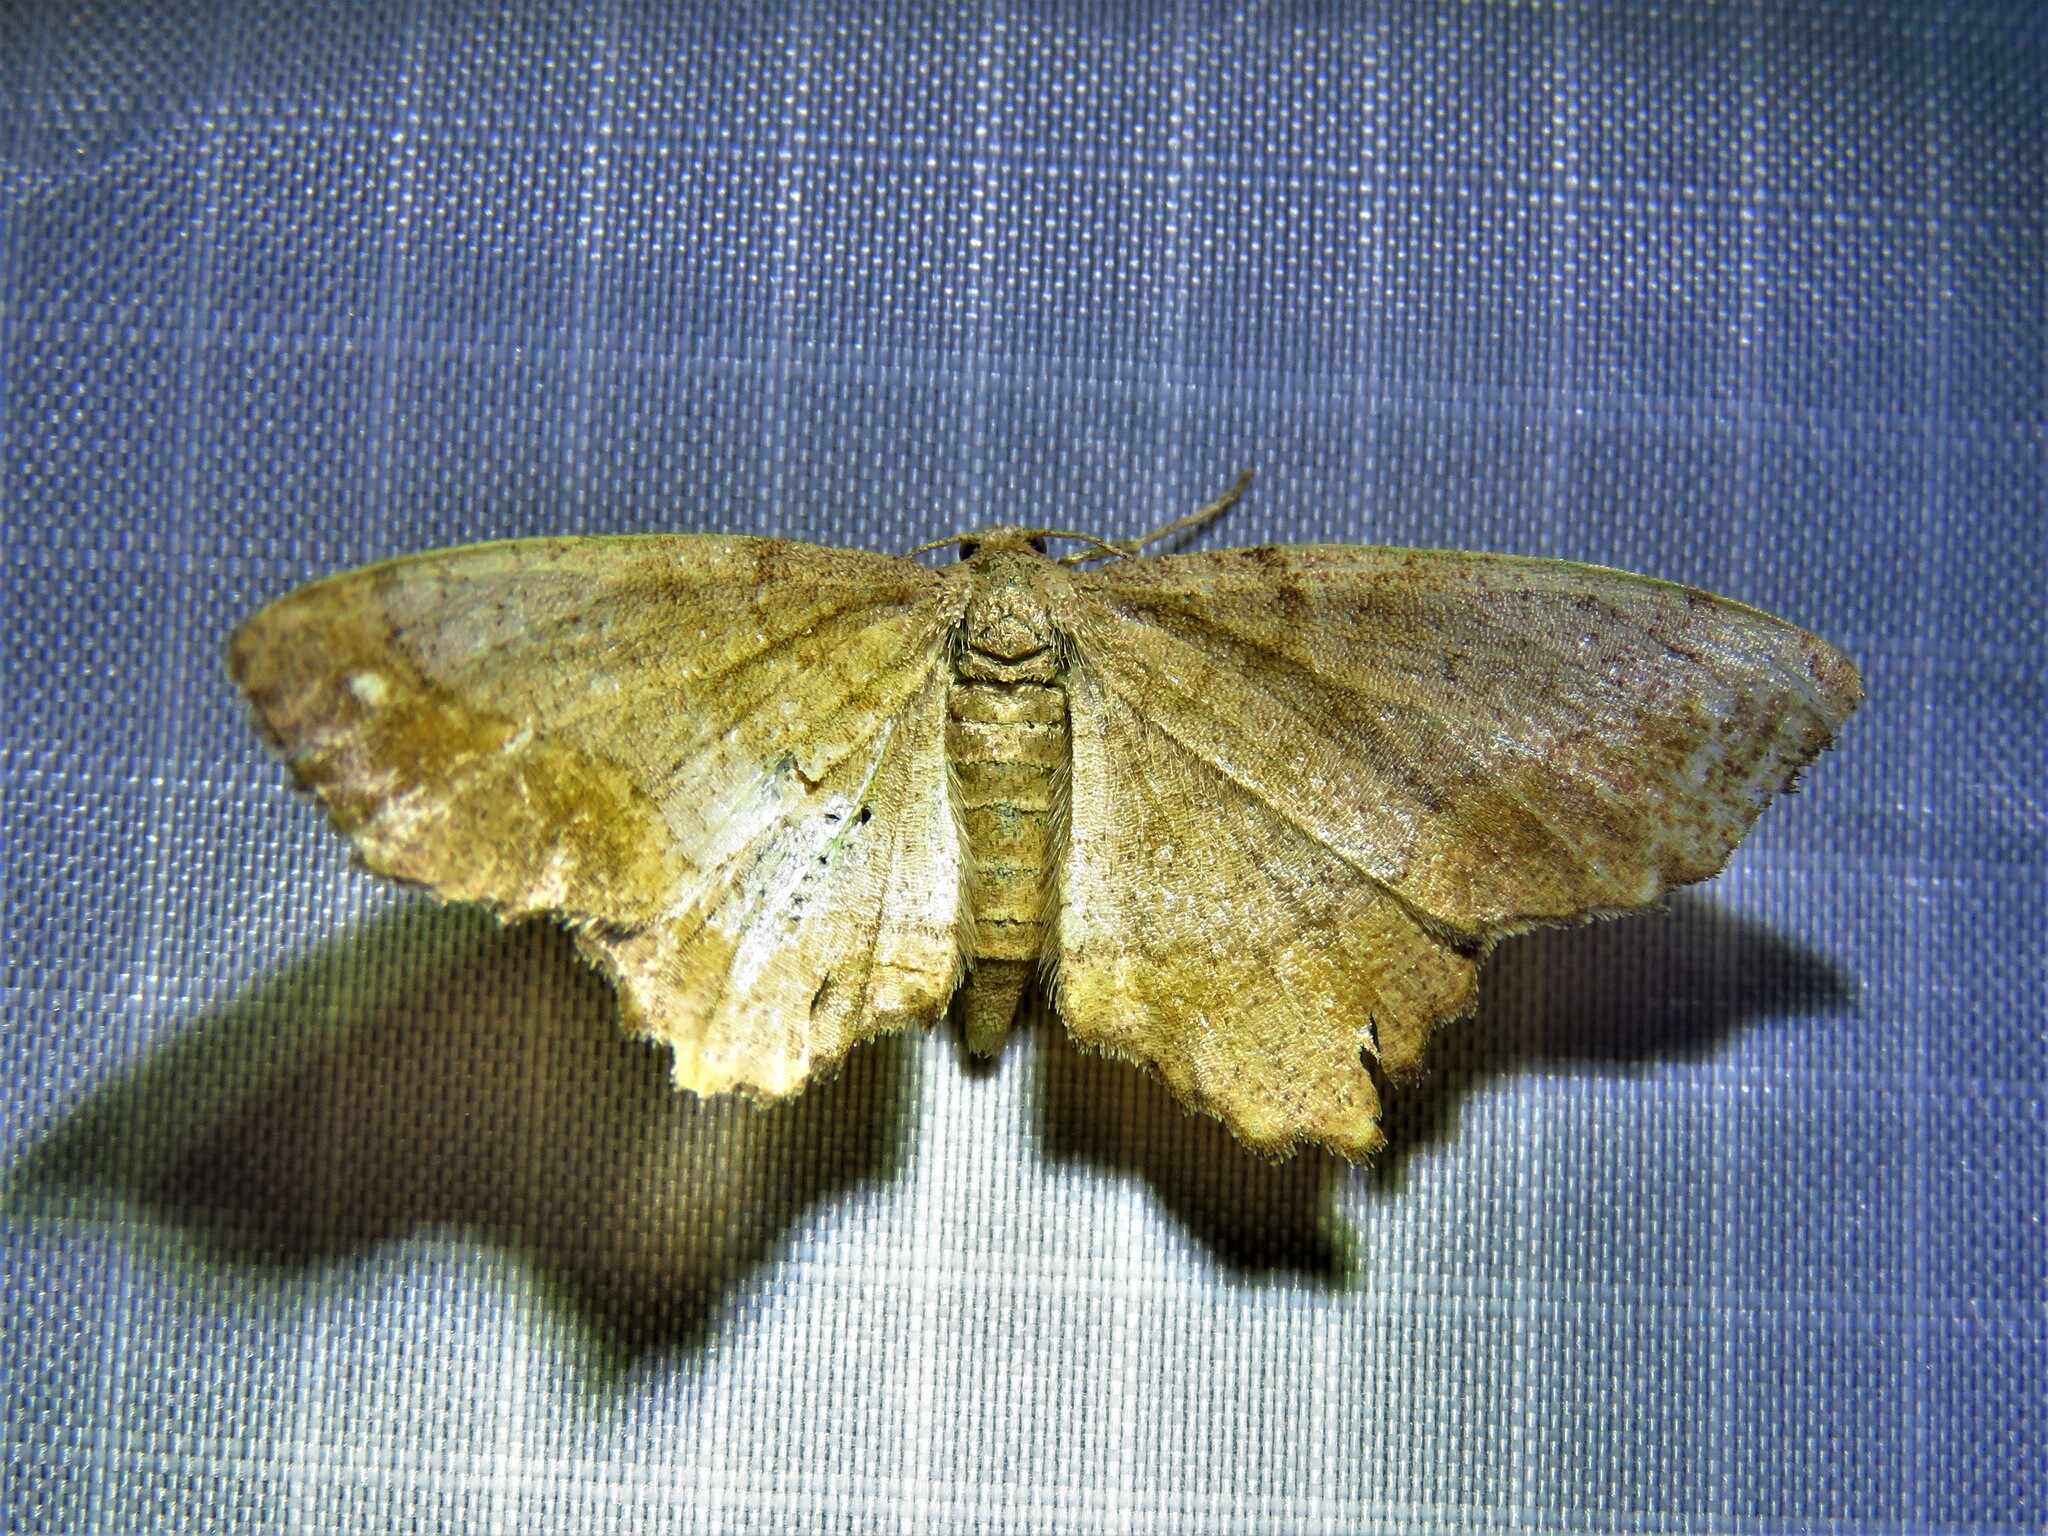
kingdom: Animalia
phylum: Arthropoda
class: Insecta
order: Lepidoptera
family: Geometridae
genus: Hypagyrtis
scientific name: Hypagyrtis esther
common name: Esther moth
